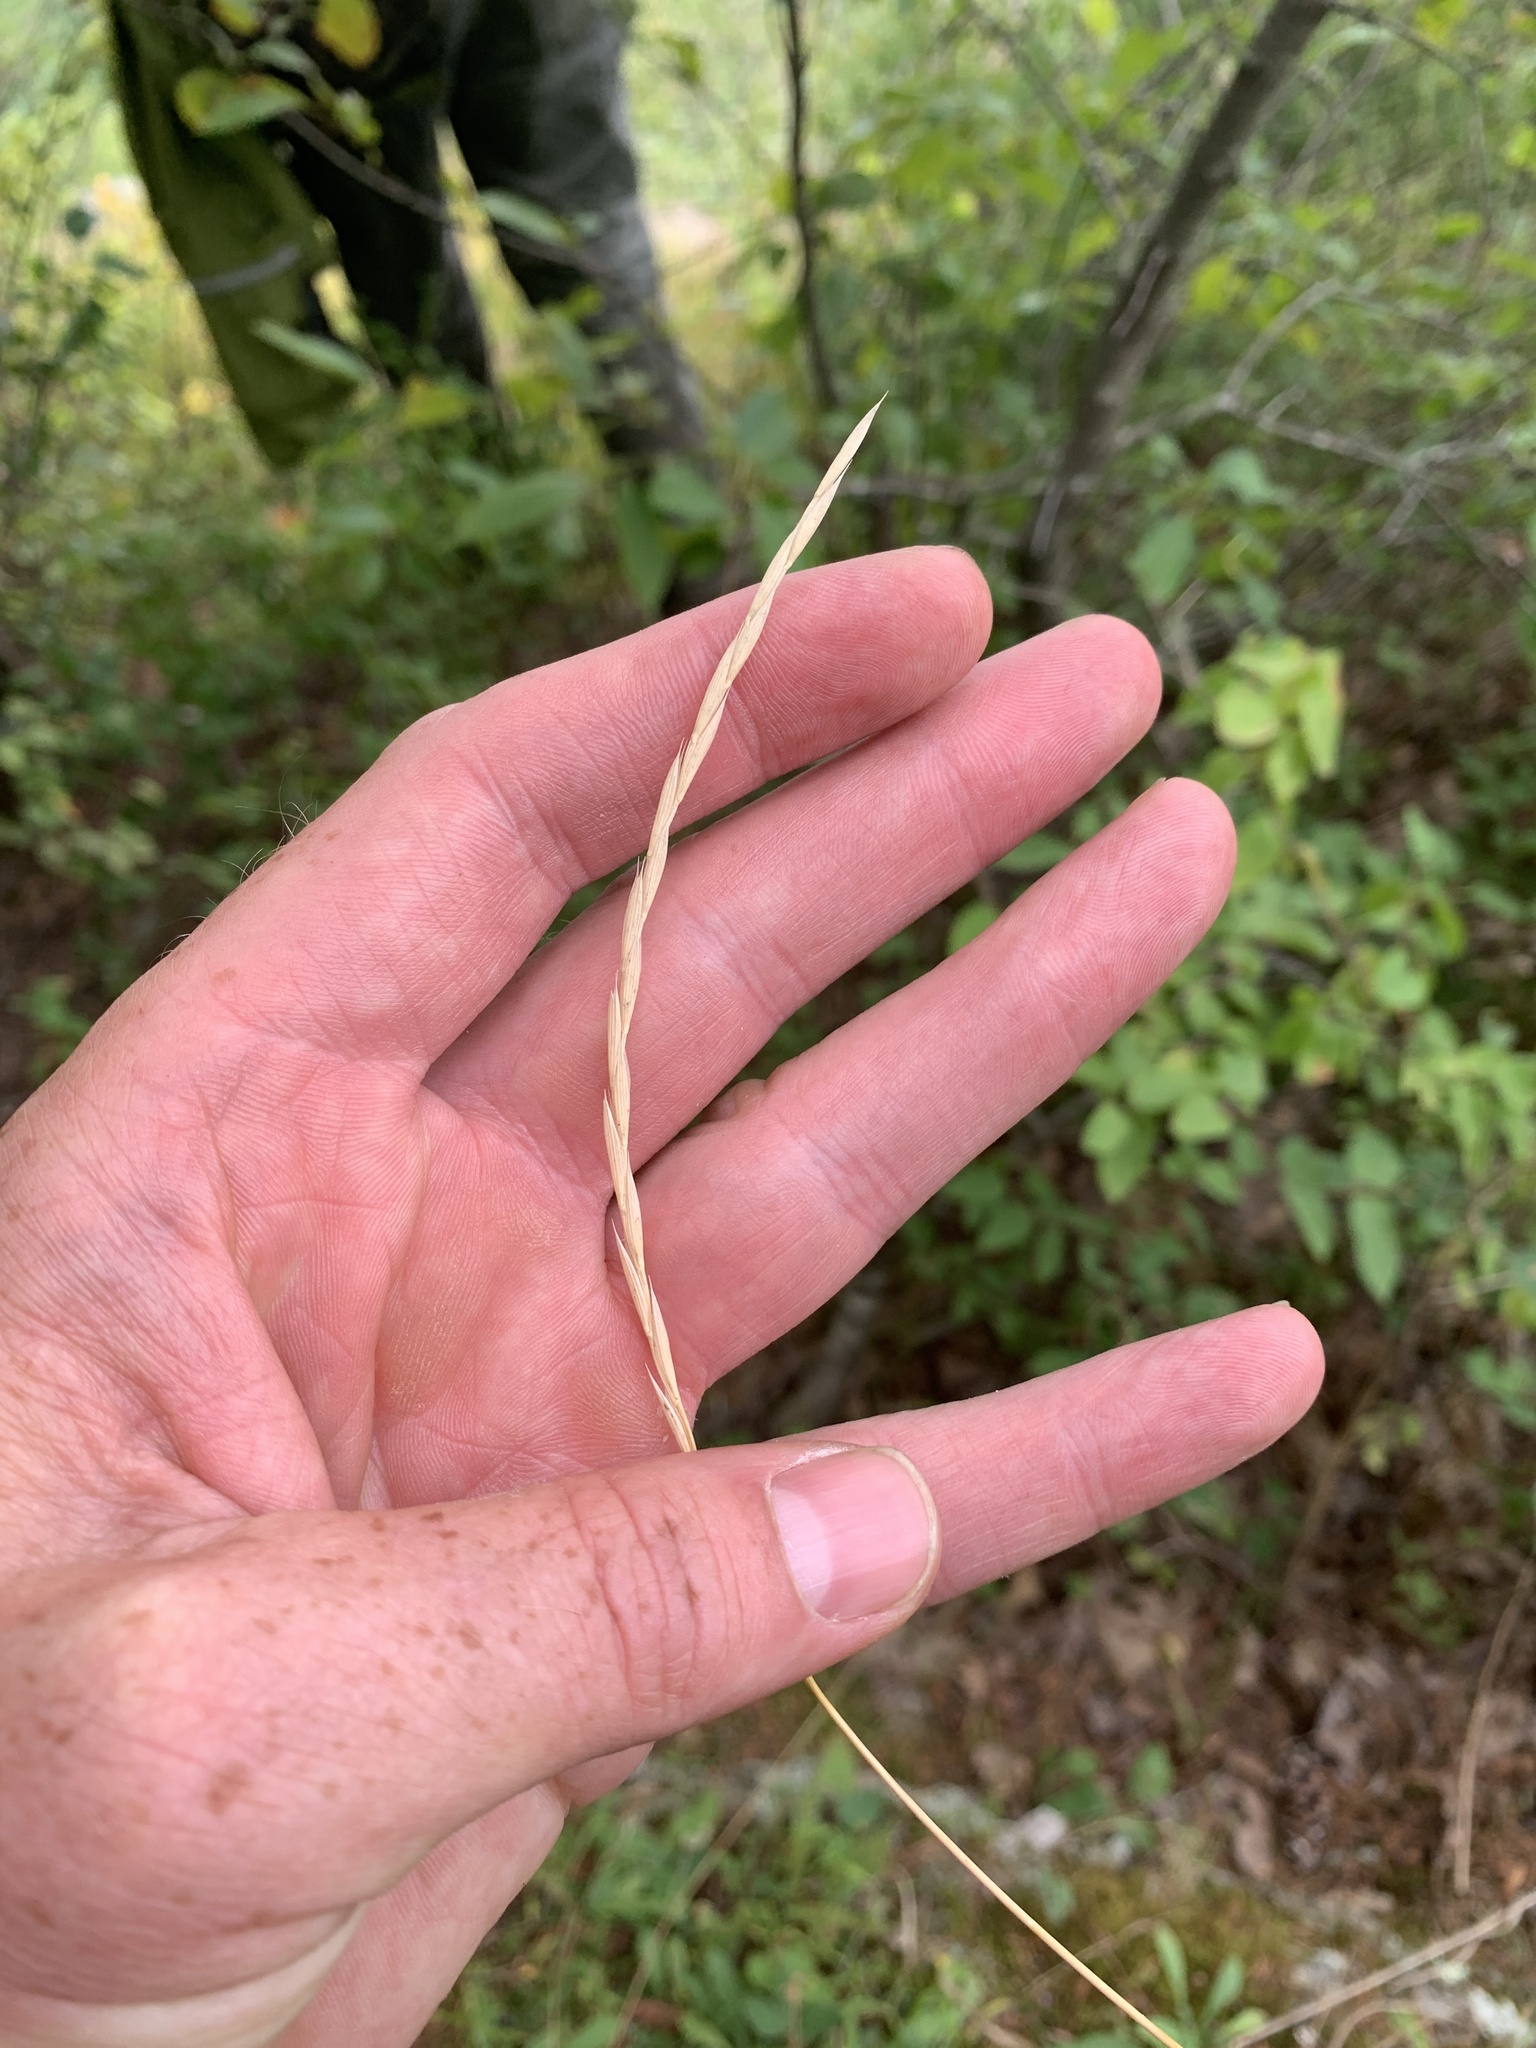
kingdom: Plantae
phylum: Tracheophyta
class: Liliopsida
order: Poales
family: Poaceae
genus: Elymus
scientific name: Elymus violaceus
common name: Arctic wheatgrass
